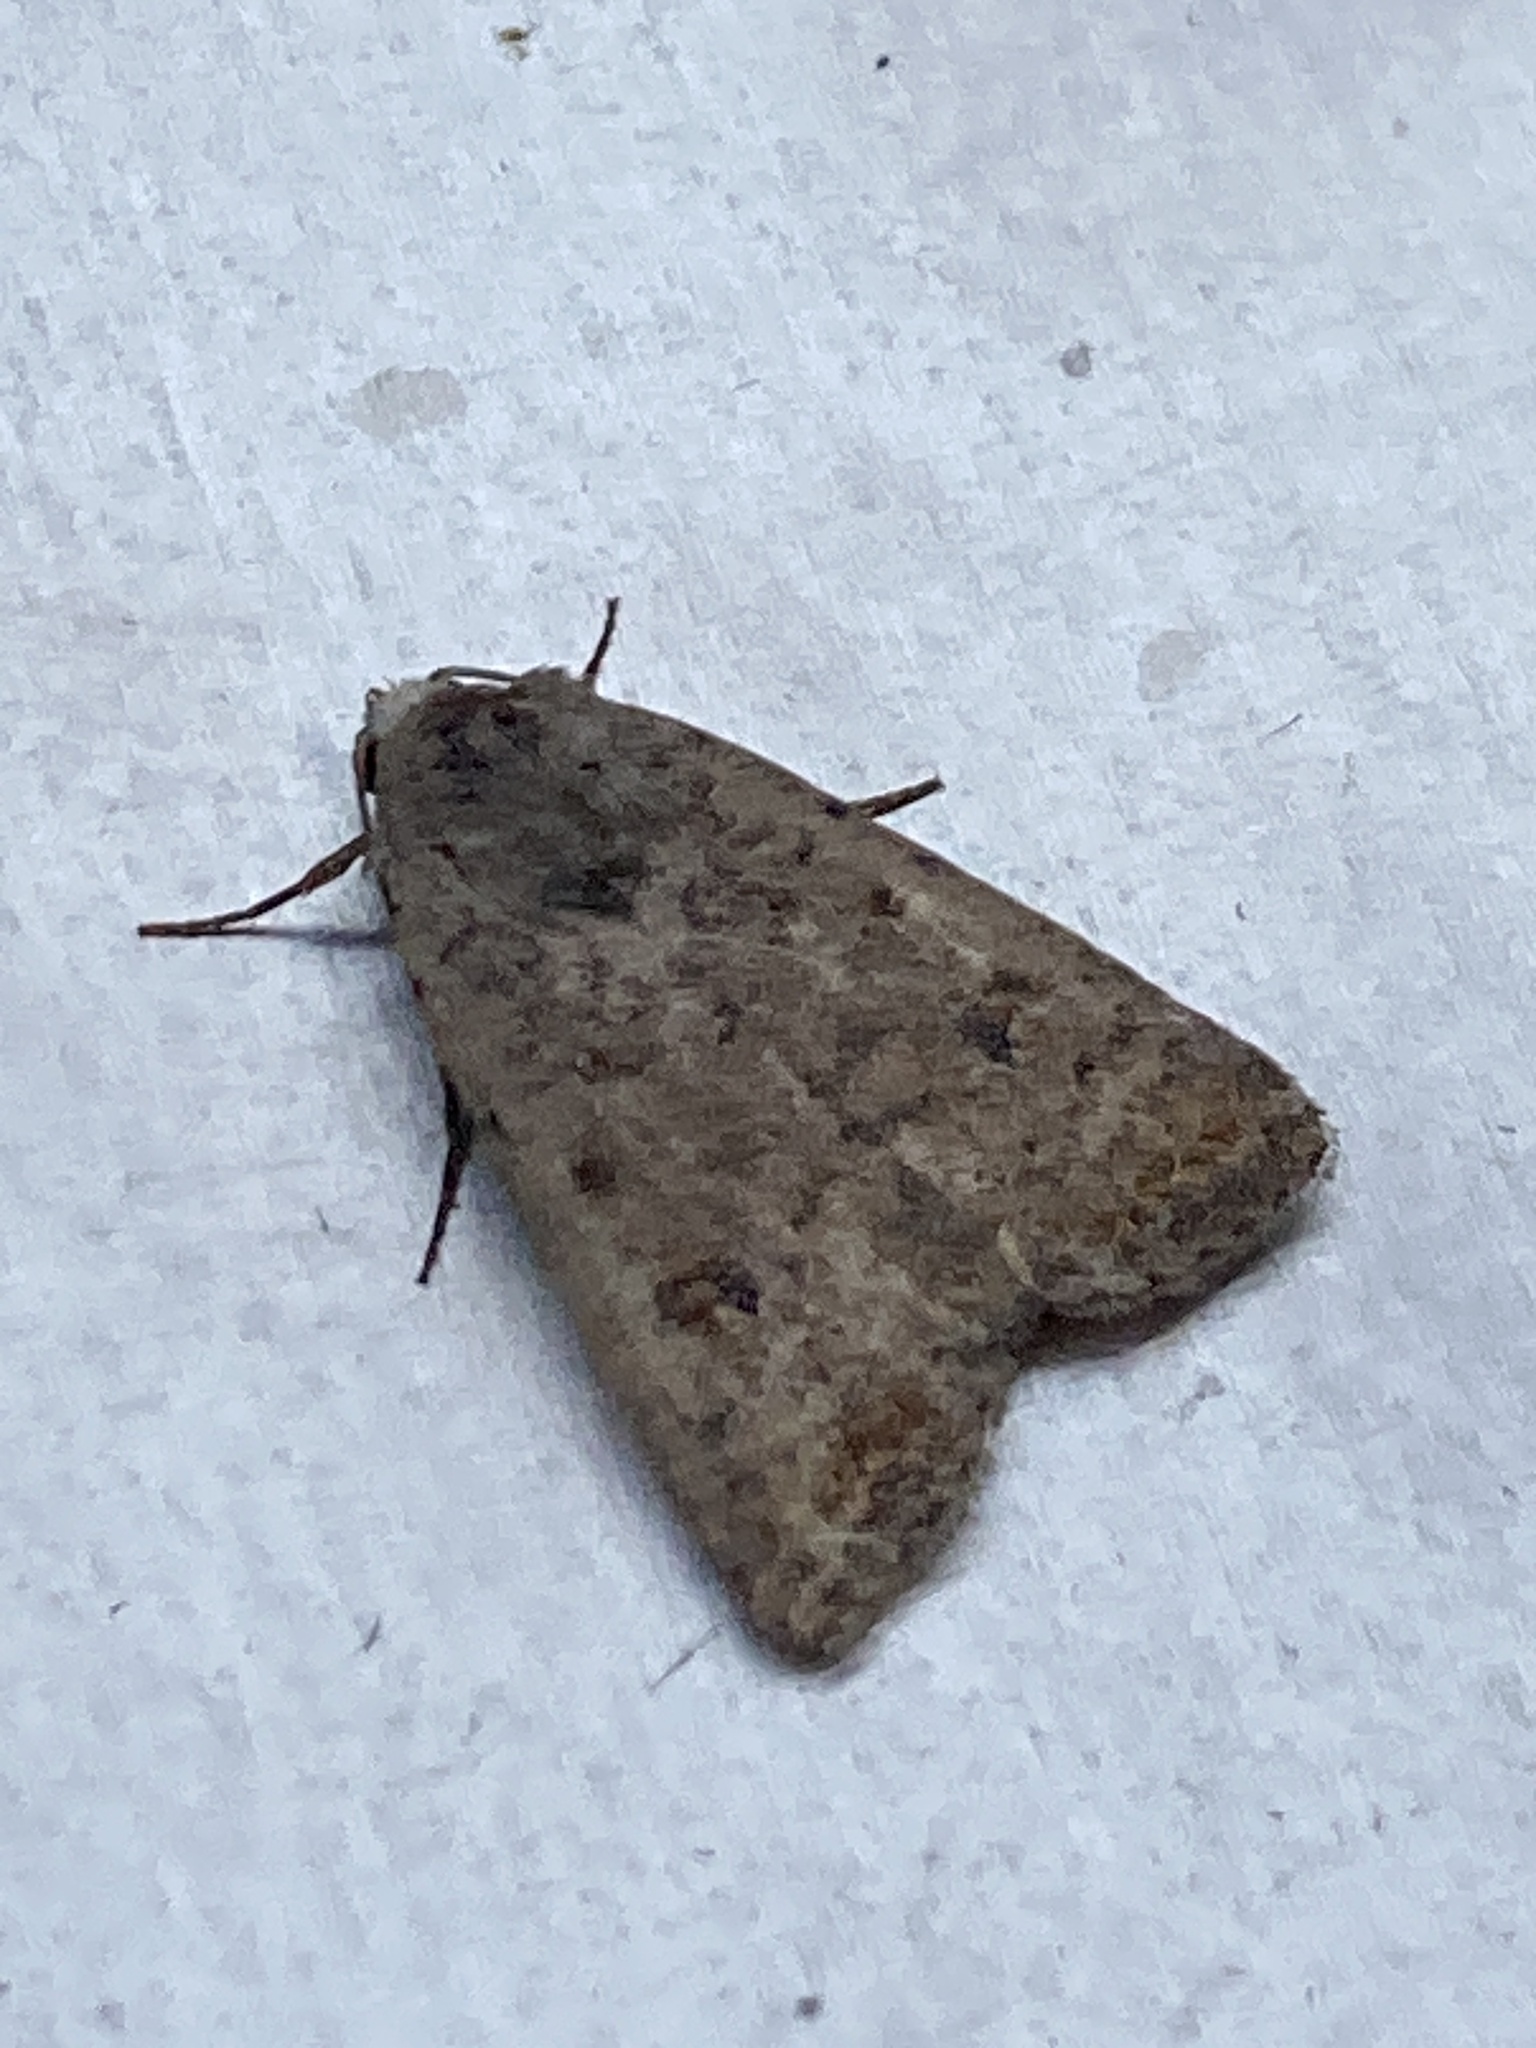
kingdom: Animalia
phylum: Arthropoda
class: Insecta
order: Lepidoptera
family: Noctuidae
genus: Caradrina
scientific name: Caradrina clavipalpis
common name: Pale mottled willow
